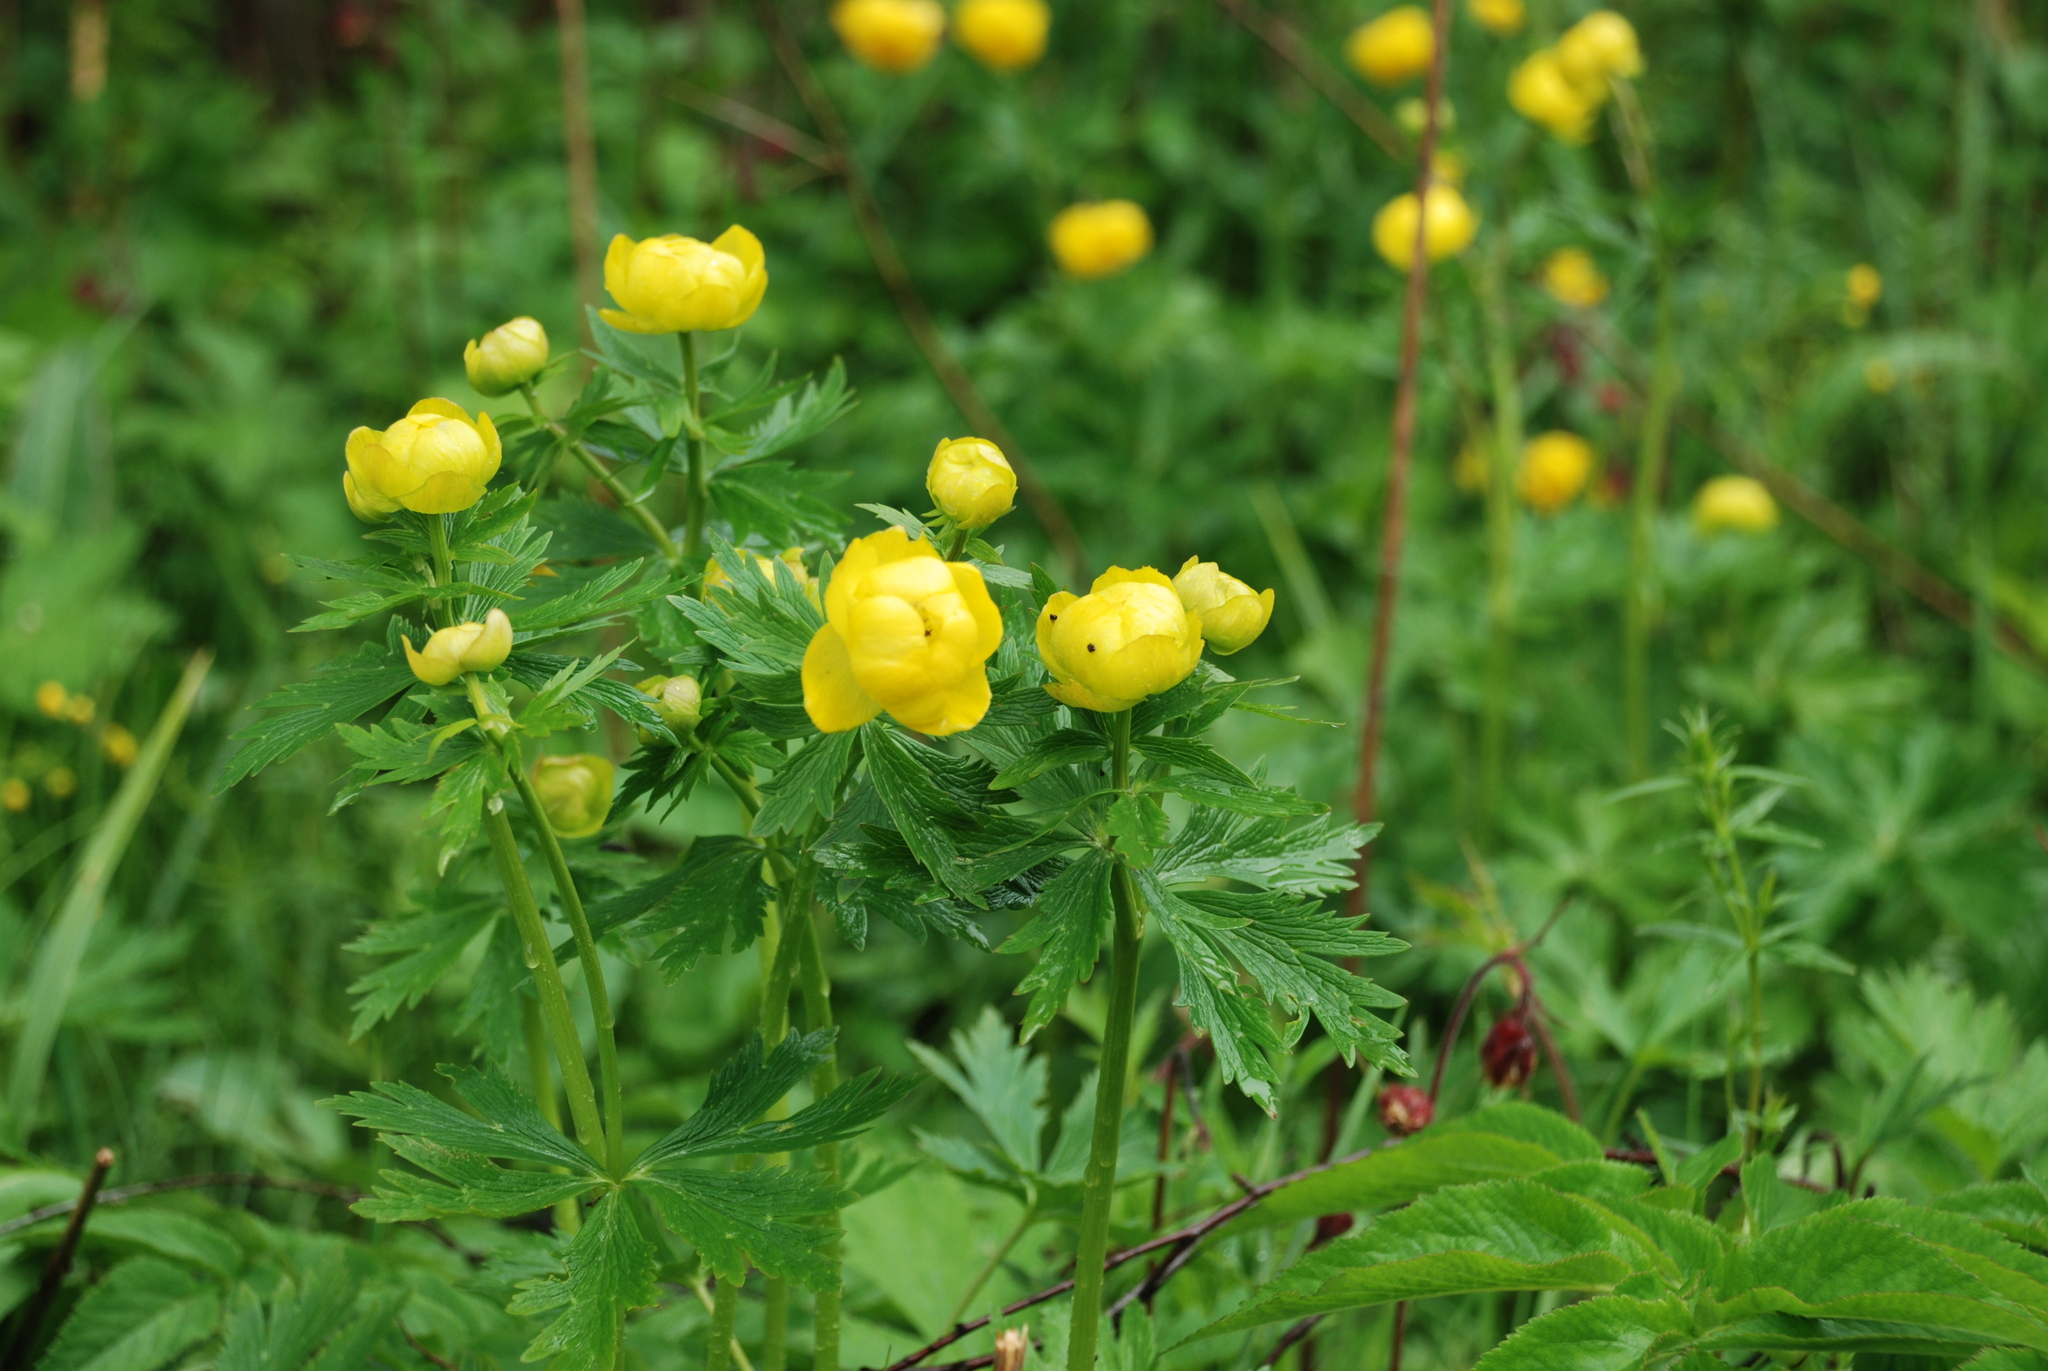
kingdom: Plantae
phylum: Tracheophyta
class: Magnoliopsida
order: Ranunculales
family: Ranunculaceae
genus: Trollius
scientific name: Trollius europaeus
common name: European globeflower
